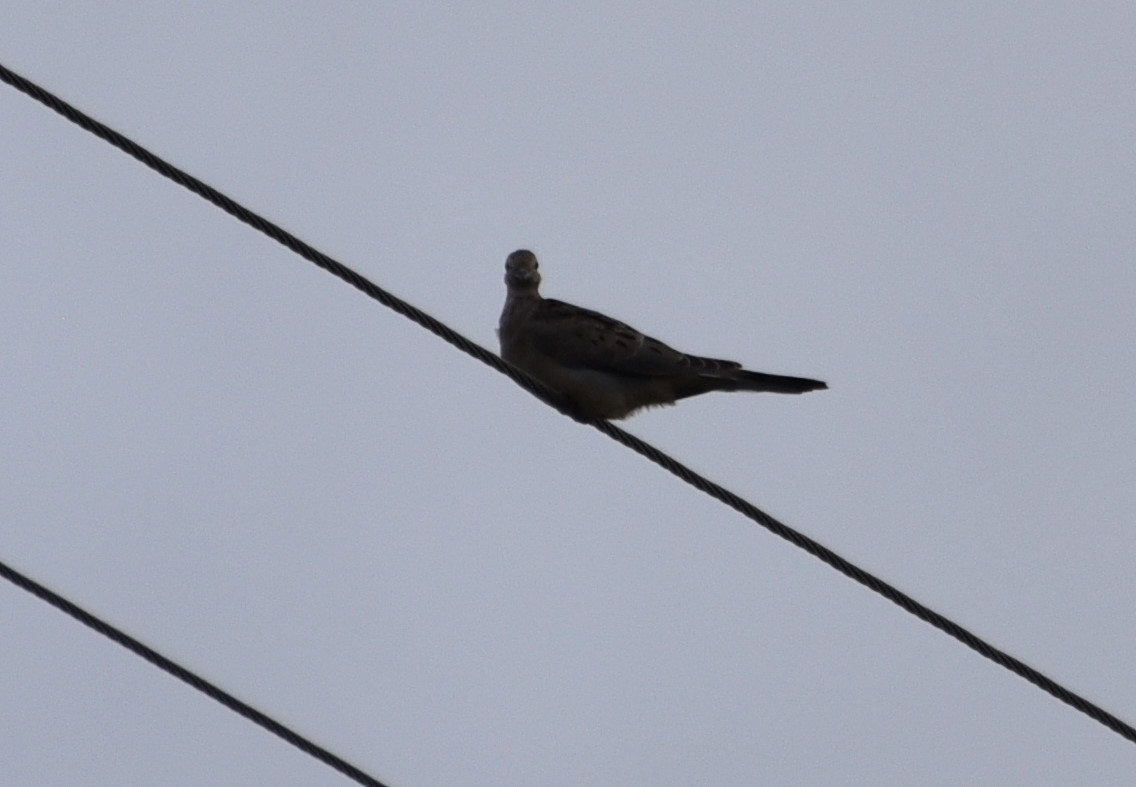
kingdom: Animalia
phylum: Chordata
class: Aves
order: Columbiformes
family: Columbidae
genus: Zenaida
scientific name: Zenaida macroura
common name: Mourning dove
